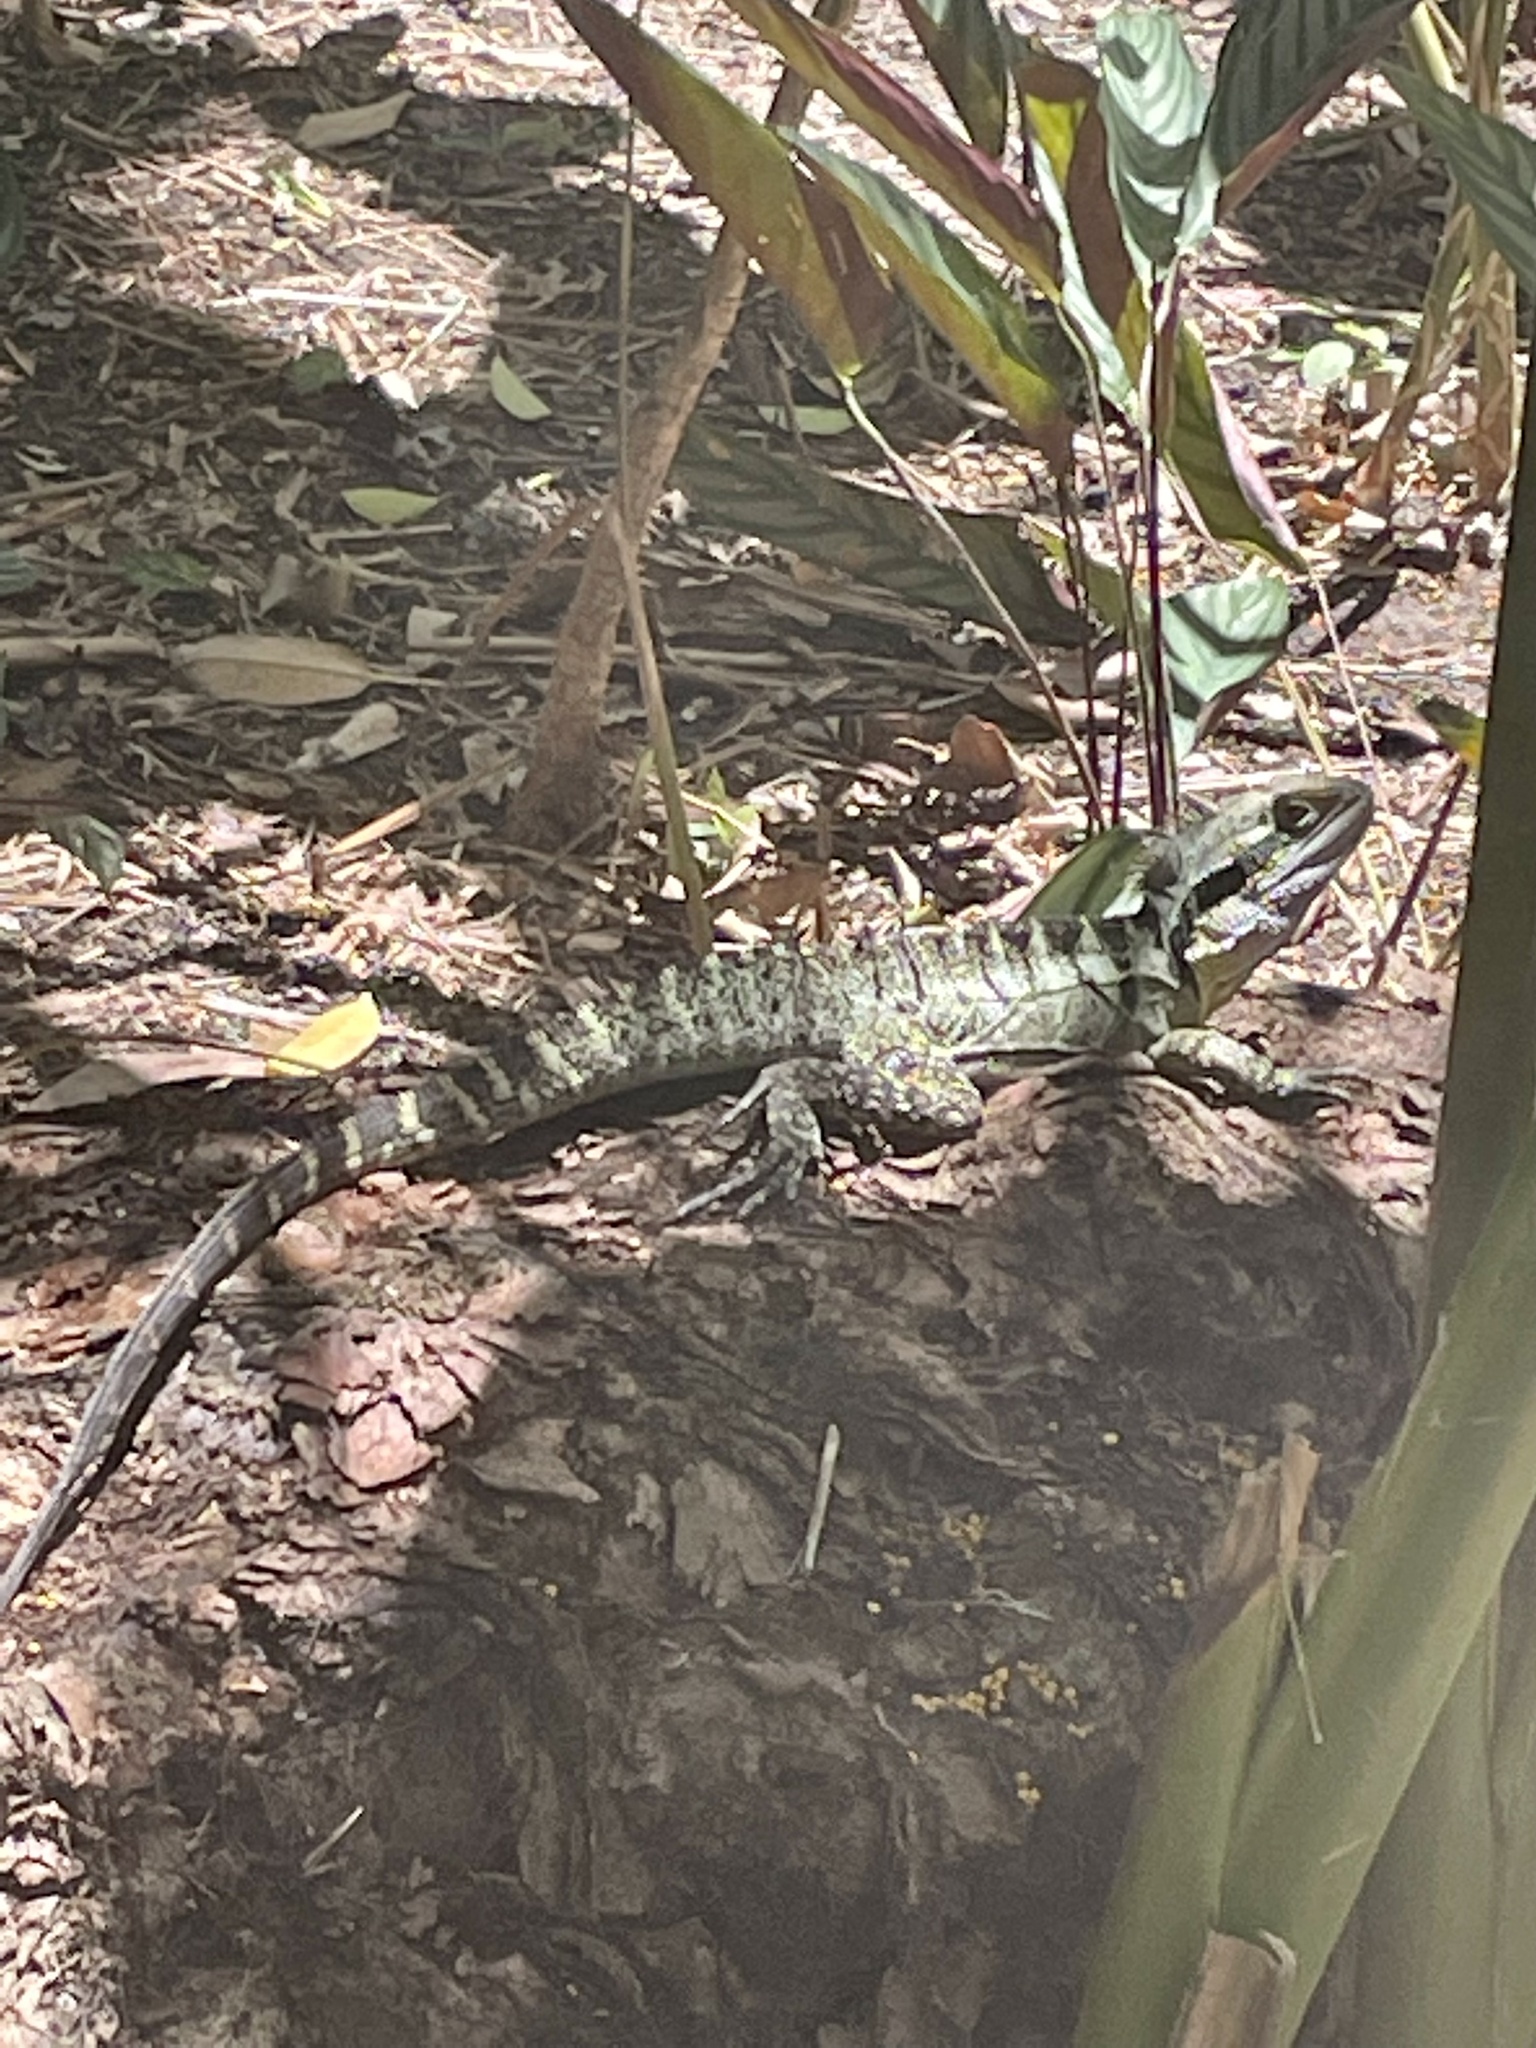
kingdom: Animalia
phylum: Chordata
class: Squamata
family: Agamidae
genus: Intellagama
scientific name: Intellagama lesueurii
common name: Eastern water dragon
